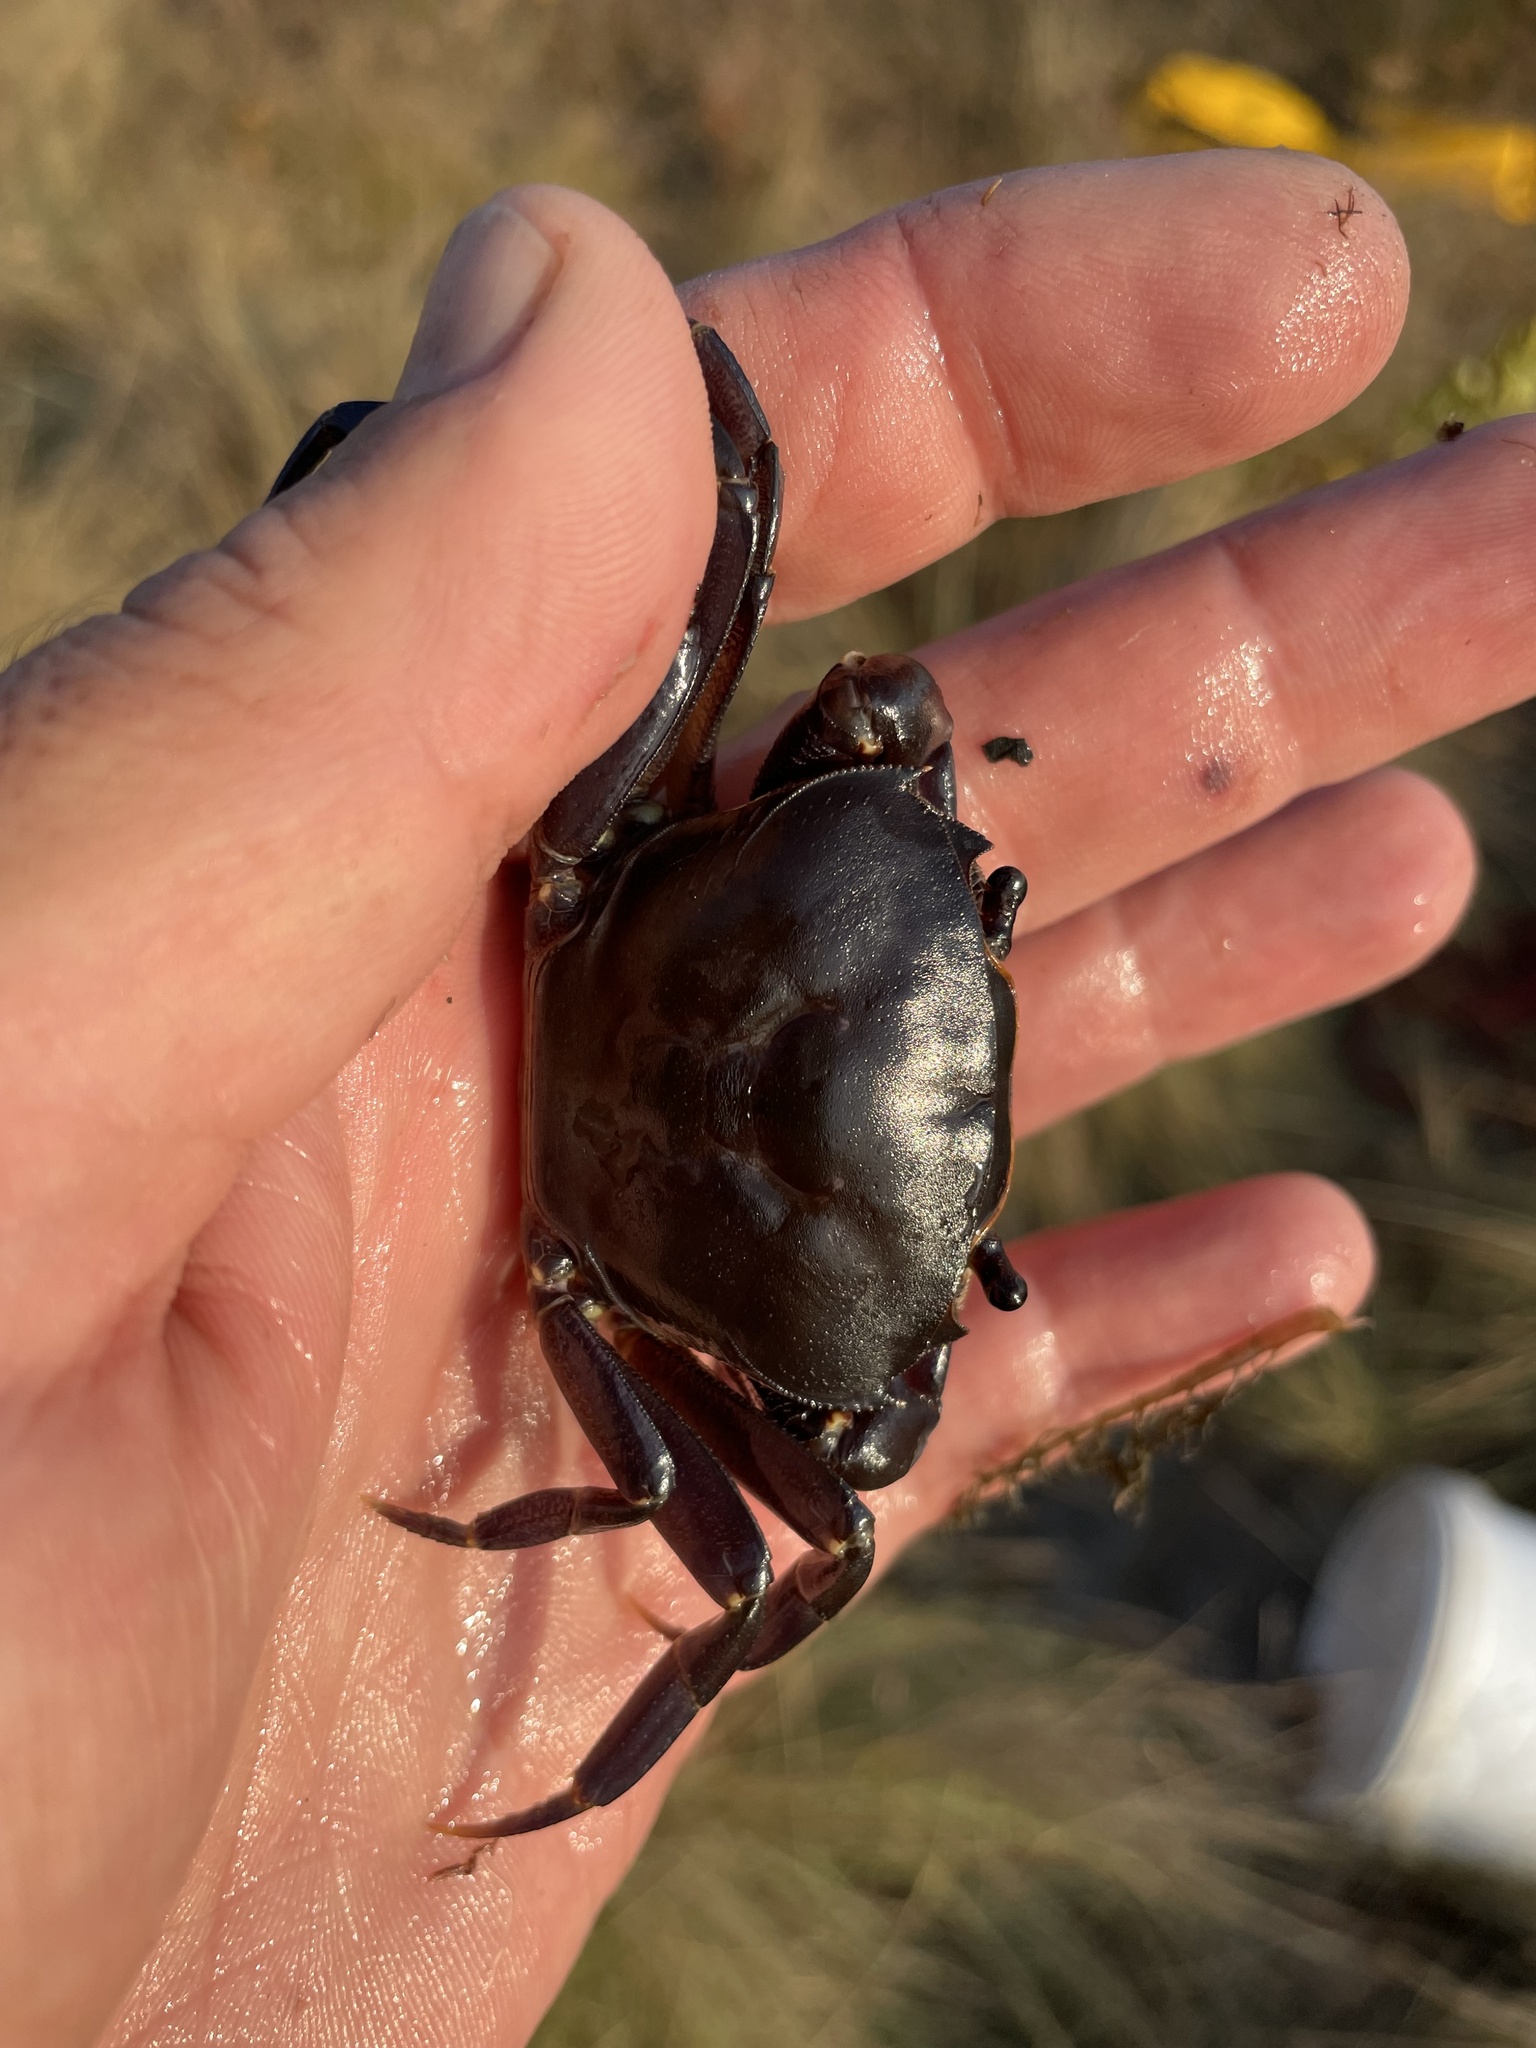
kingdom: Animalia
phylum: Arthropoda
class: Malacostraca
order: Decapoda
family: Potamonautidae
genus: Potamonautes
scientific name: Potamonautes bayonianus
